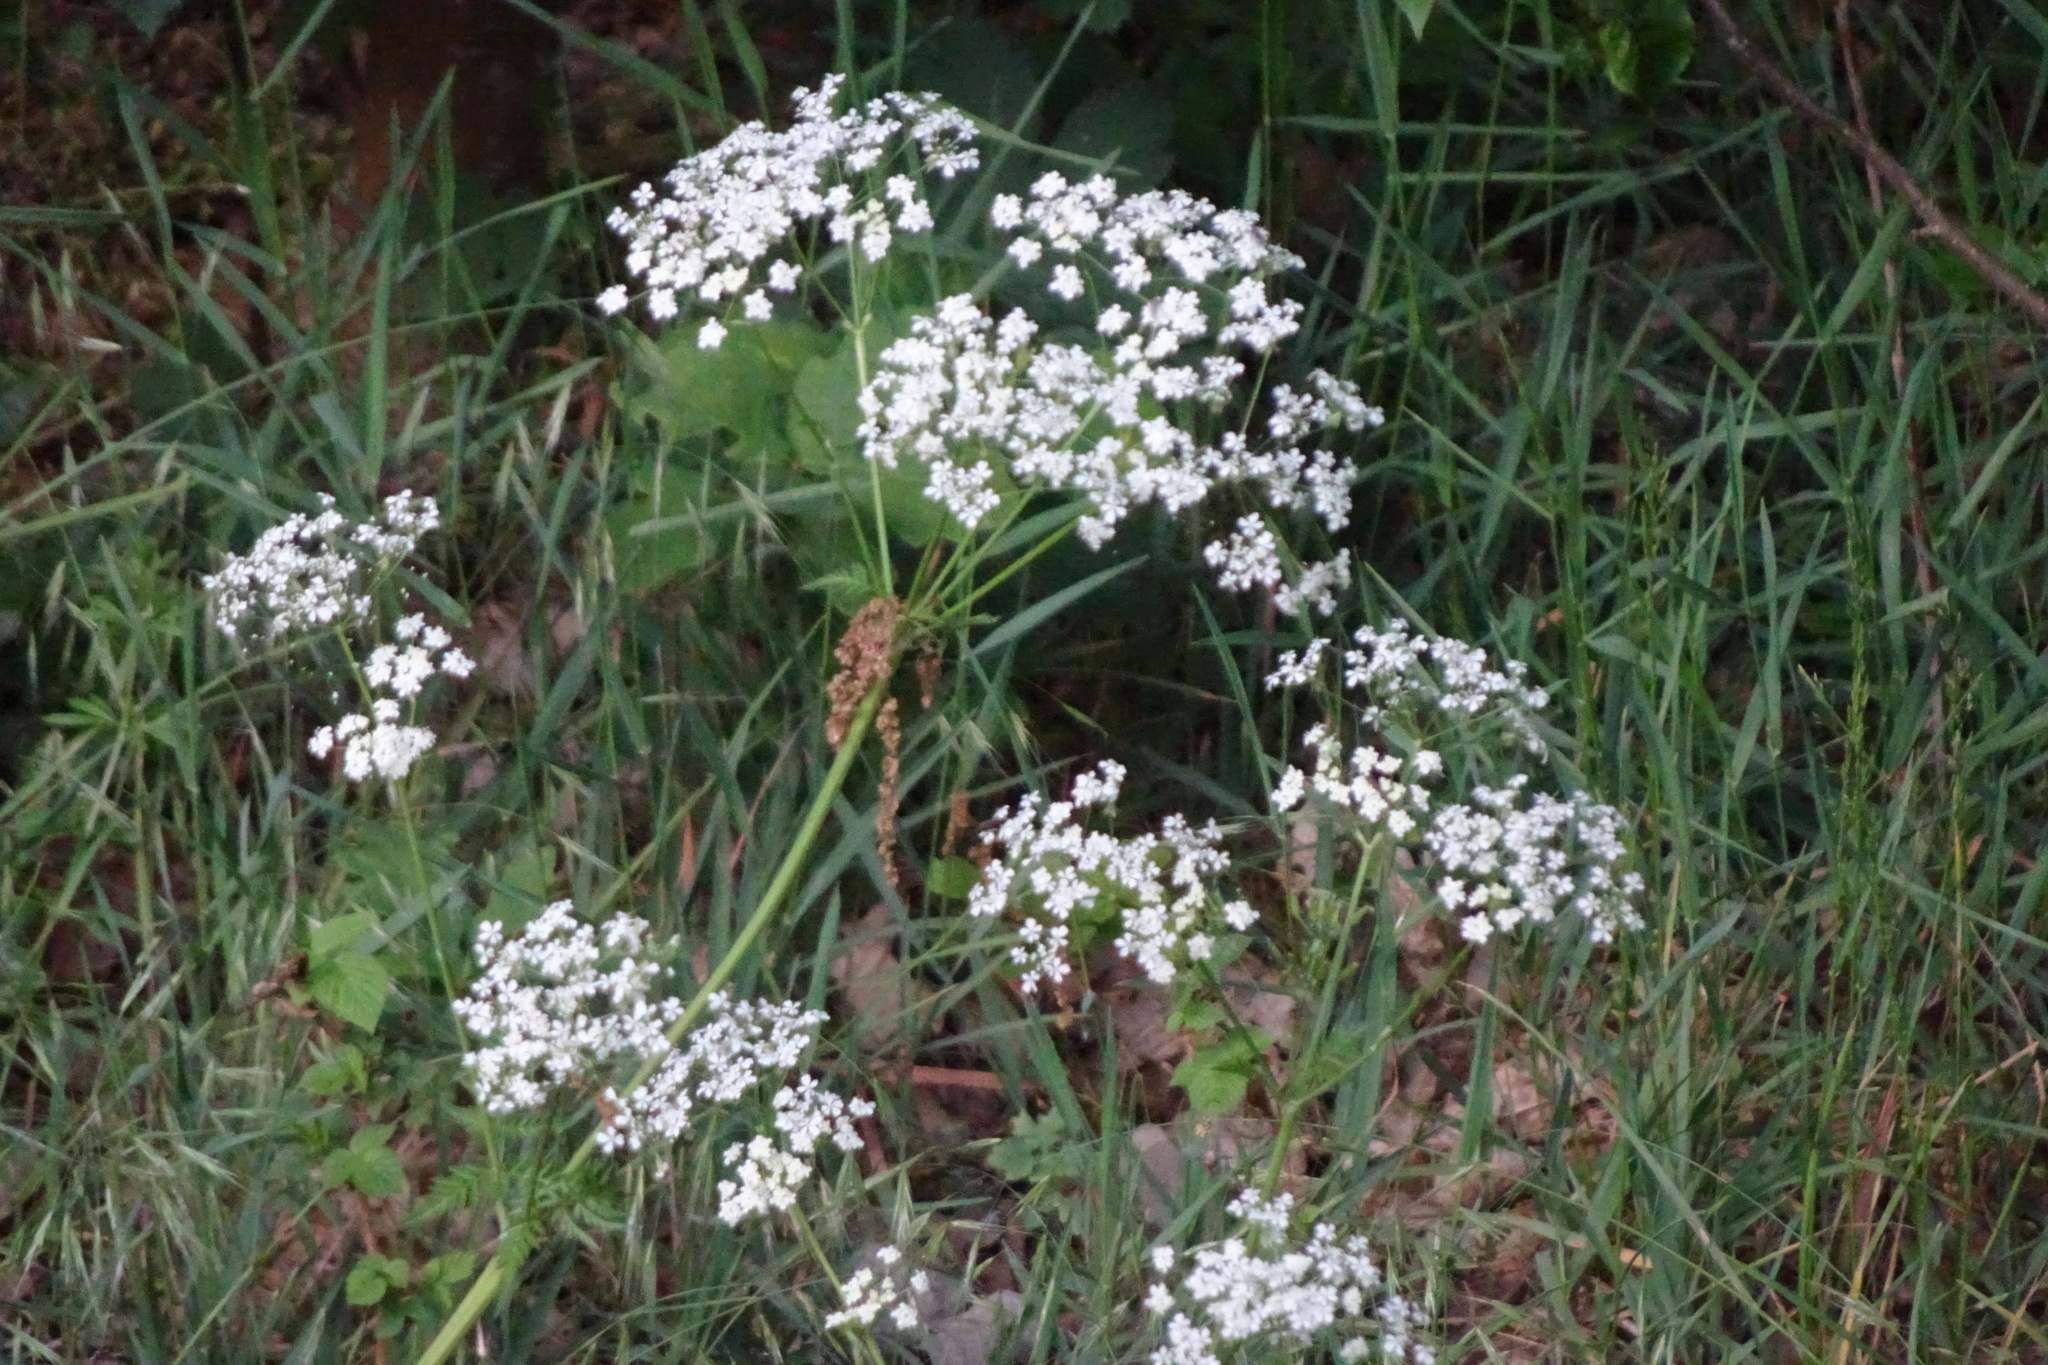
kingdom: Plantae
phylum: Tracheophyta
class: Magnoliopsida
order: Apiales
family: Apiaceae
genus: Anthriscus
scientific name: Anthriscus sylvestris
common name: Cow parsley
